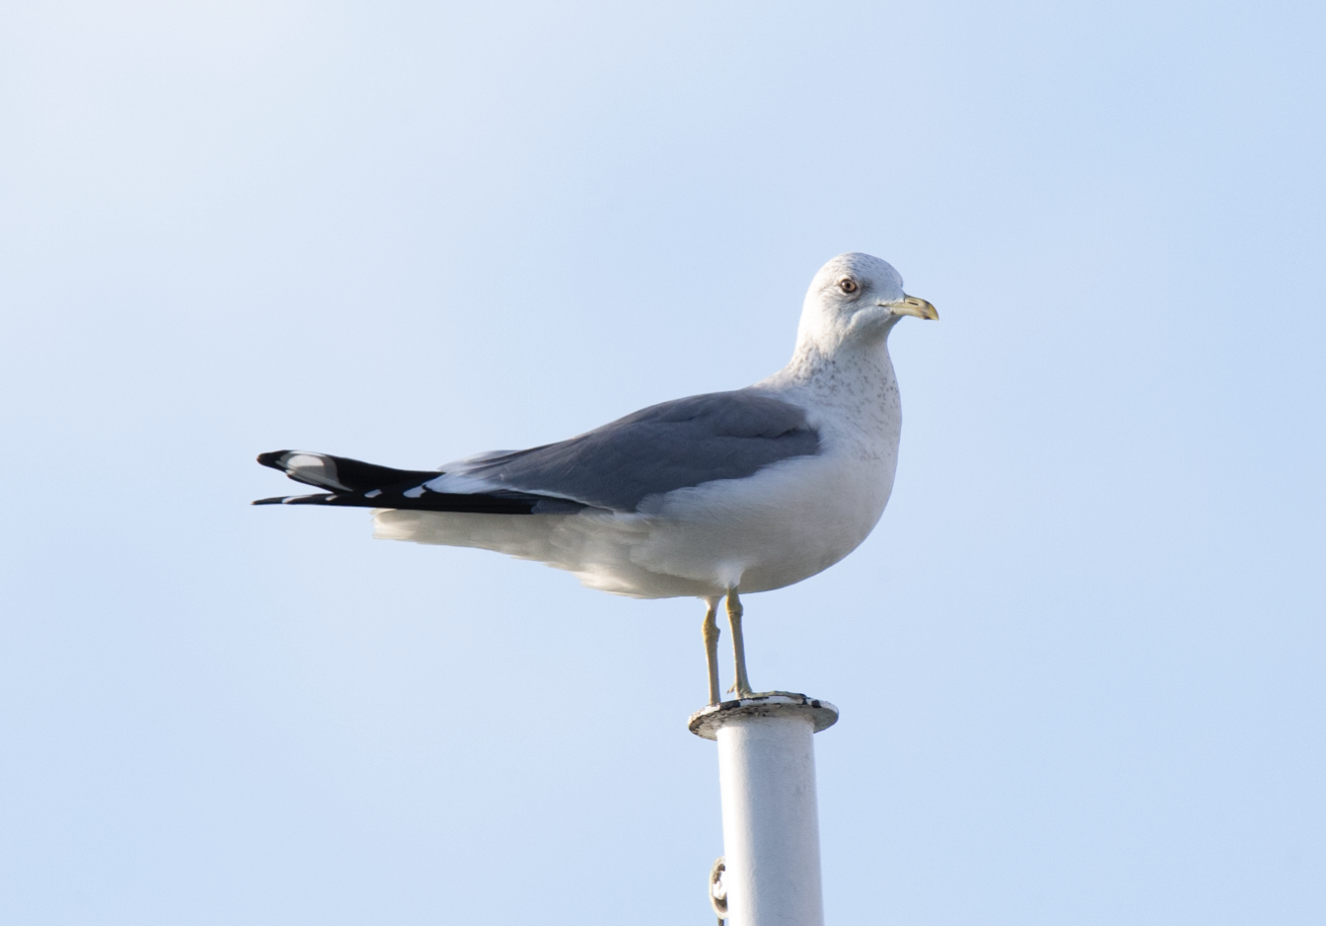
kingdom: Animalia
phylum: Chordata
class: Aves
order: Charadriiformes
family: Laridae
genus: Larus
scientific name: Larus canus
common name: Mew gull
